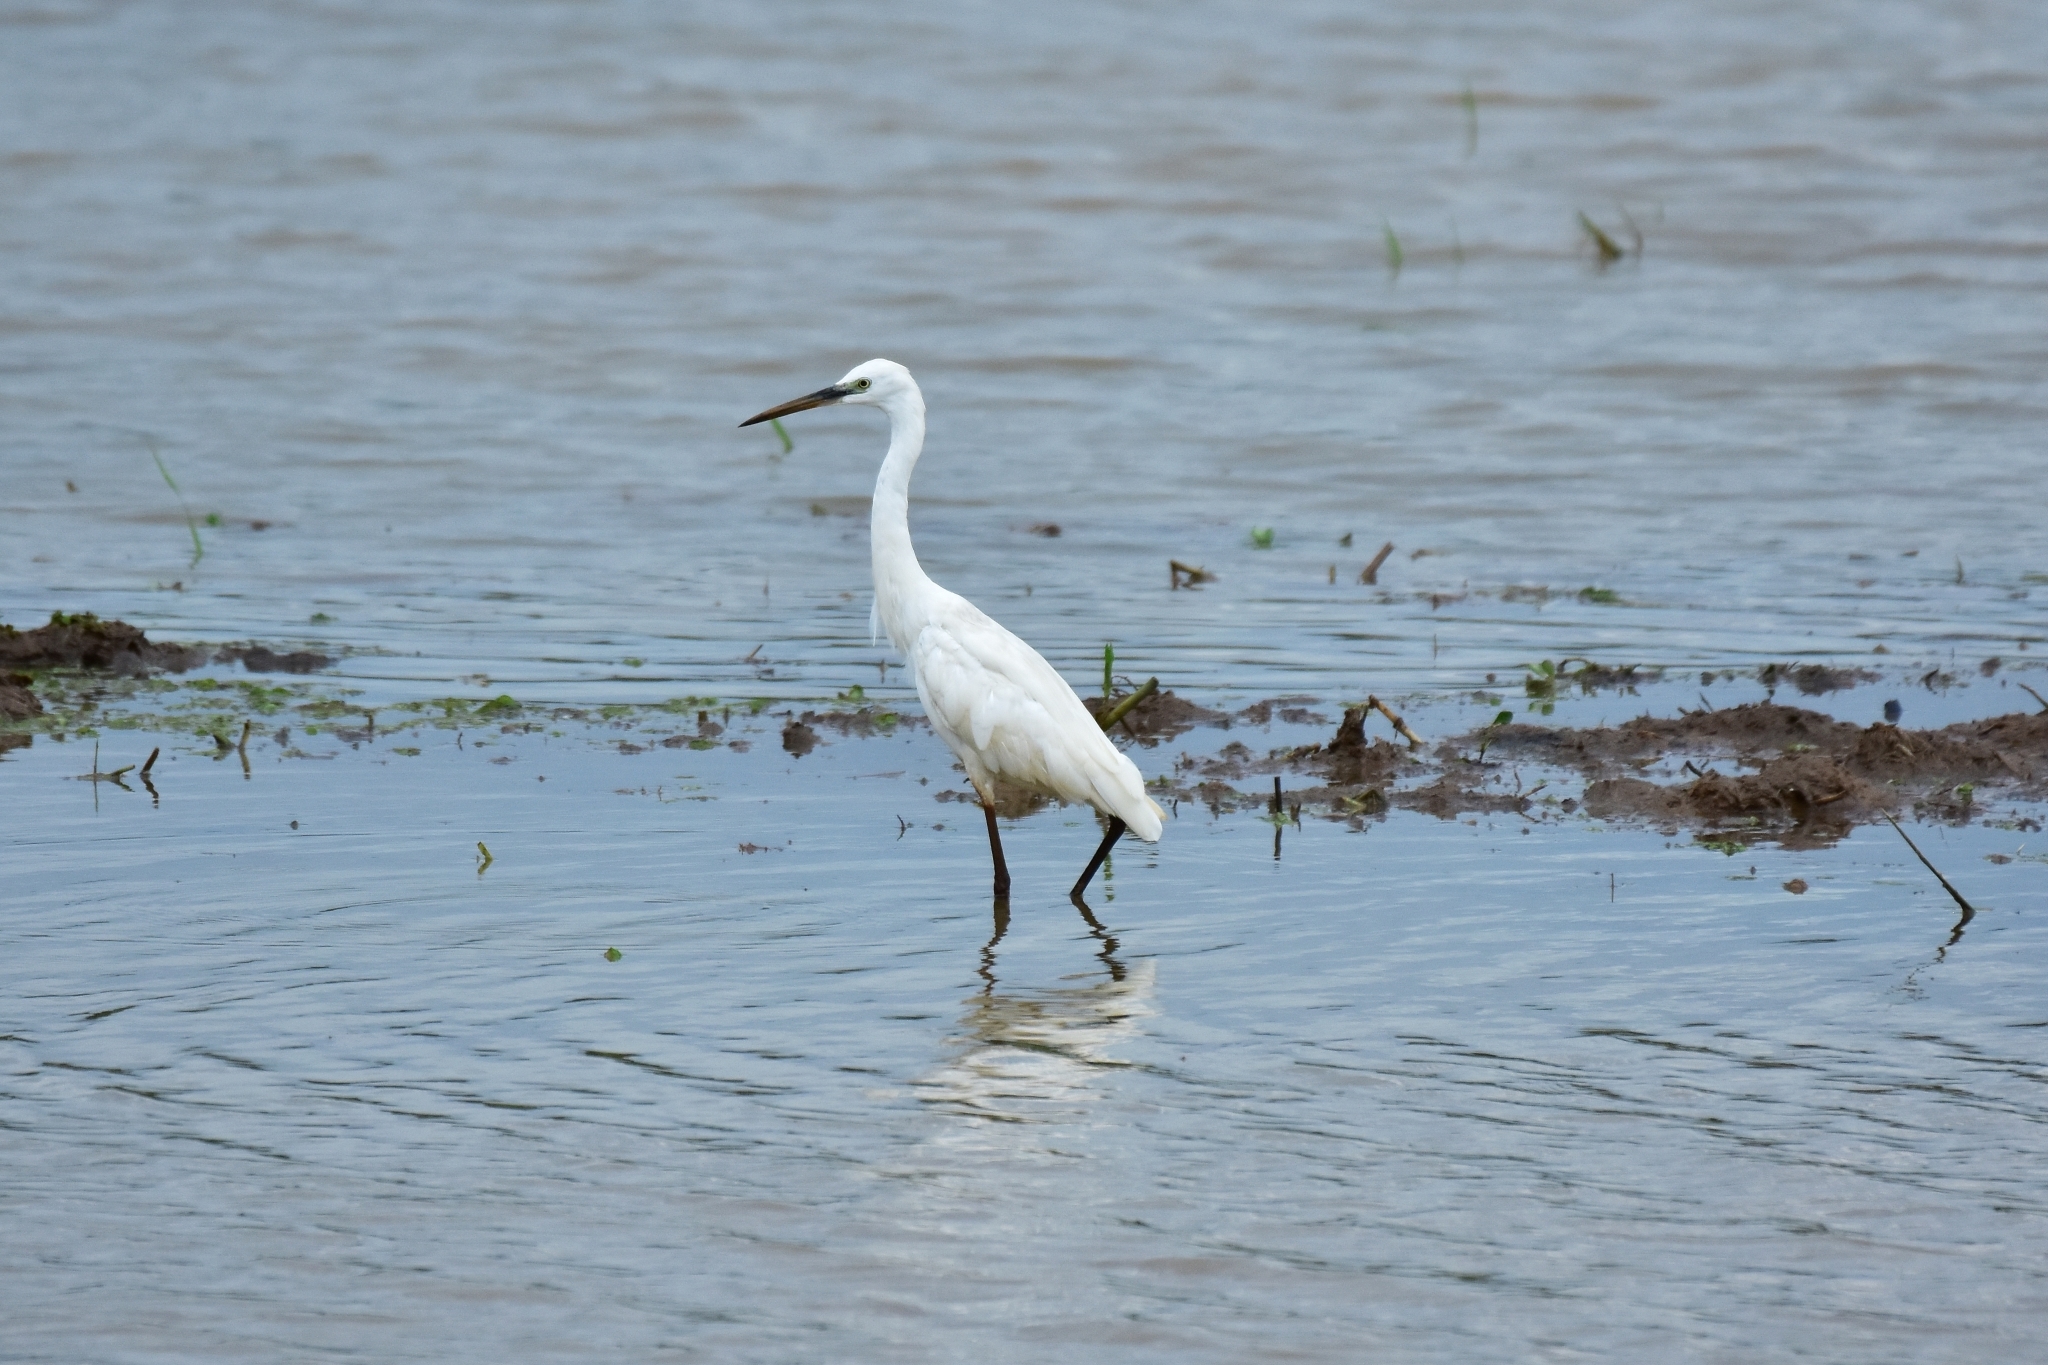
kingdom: Animalia
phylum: Chordata
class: Aves
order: Pelecaniformes
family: Ardeidae
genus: Egretta
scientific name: Egretta garzetta
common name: Little egret
